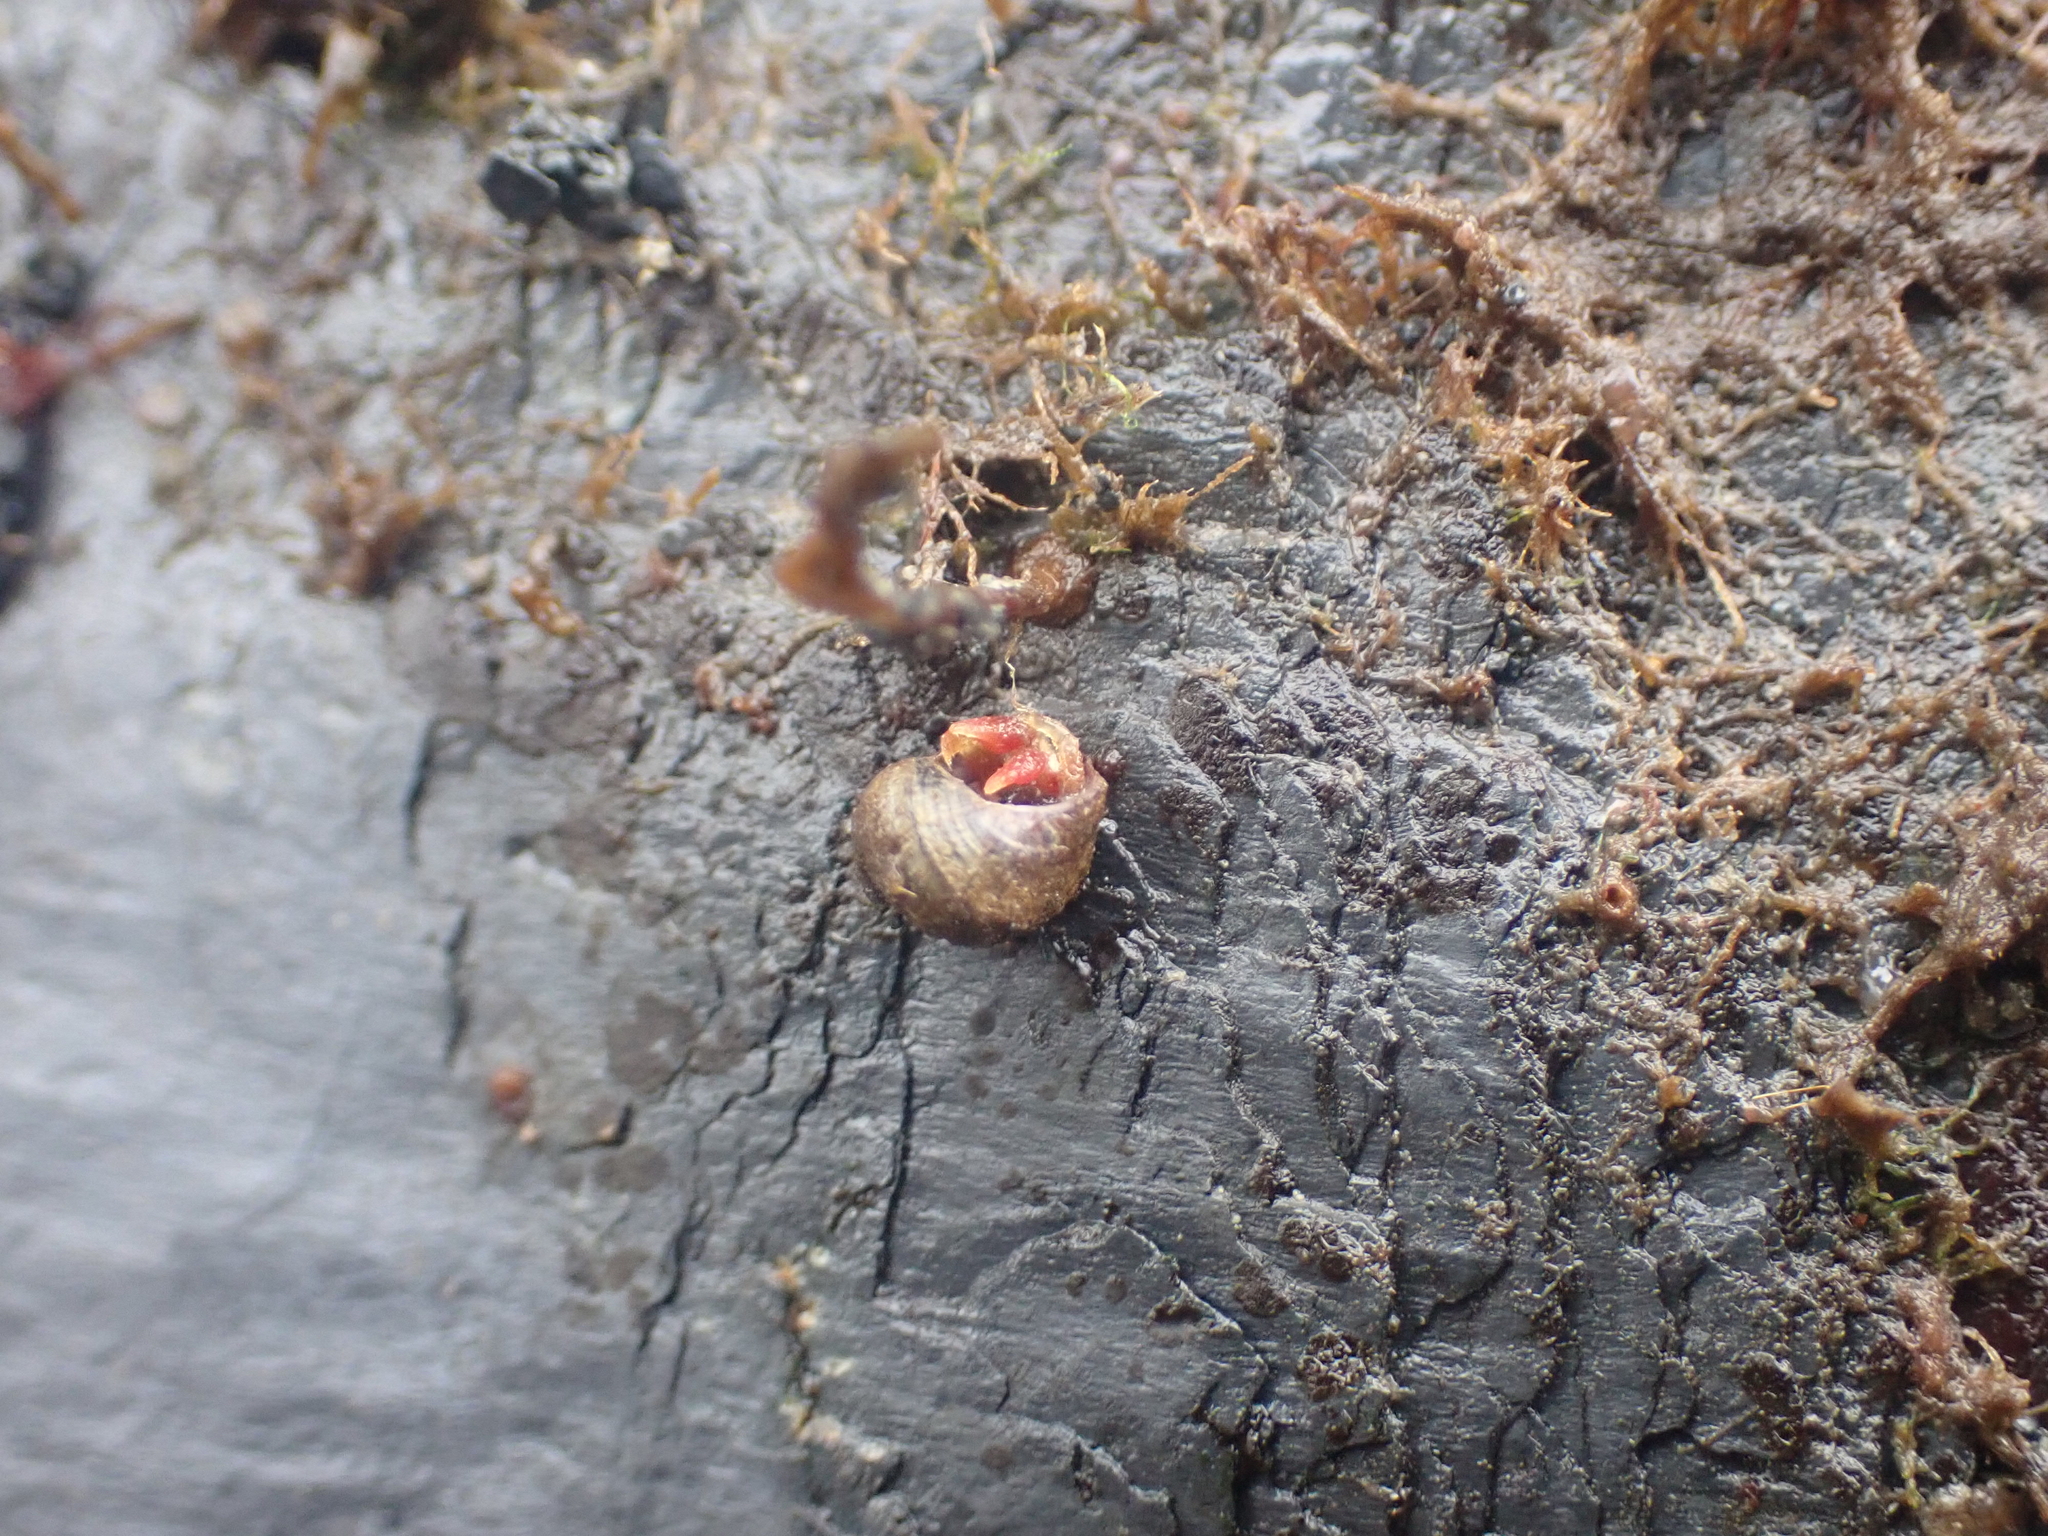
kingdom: Animalia
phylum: Arthropoda
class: Malacostraca
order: Decapoda
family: Paguridae
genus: Pagurus
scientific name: Pagurus hartae
